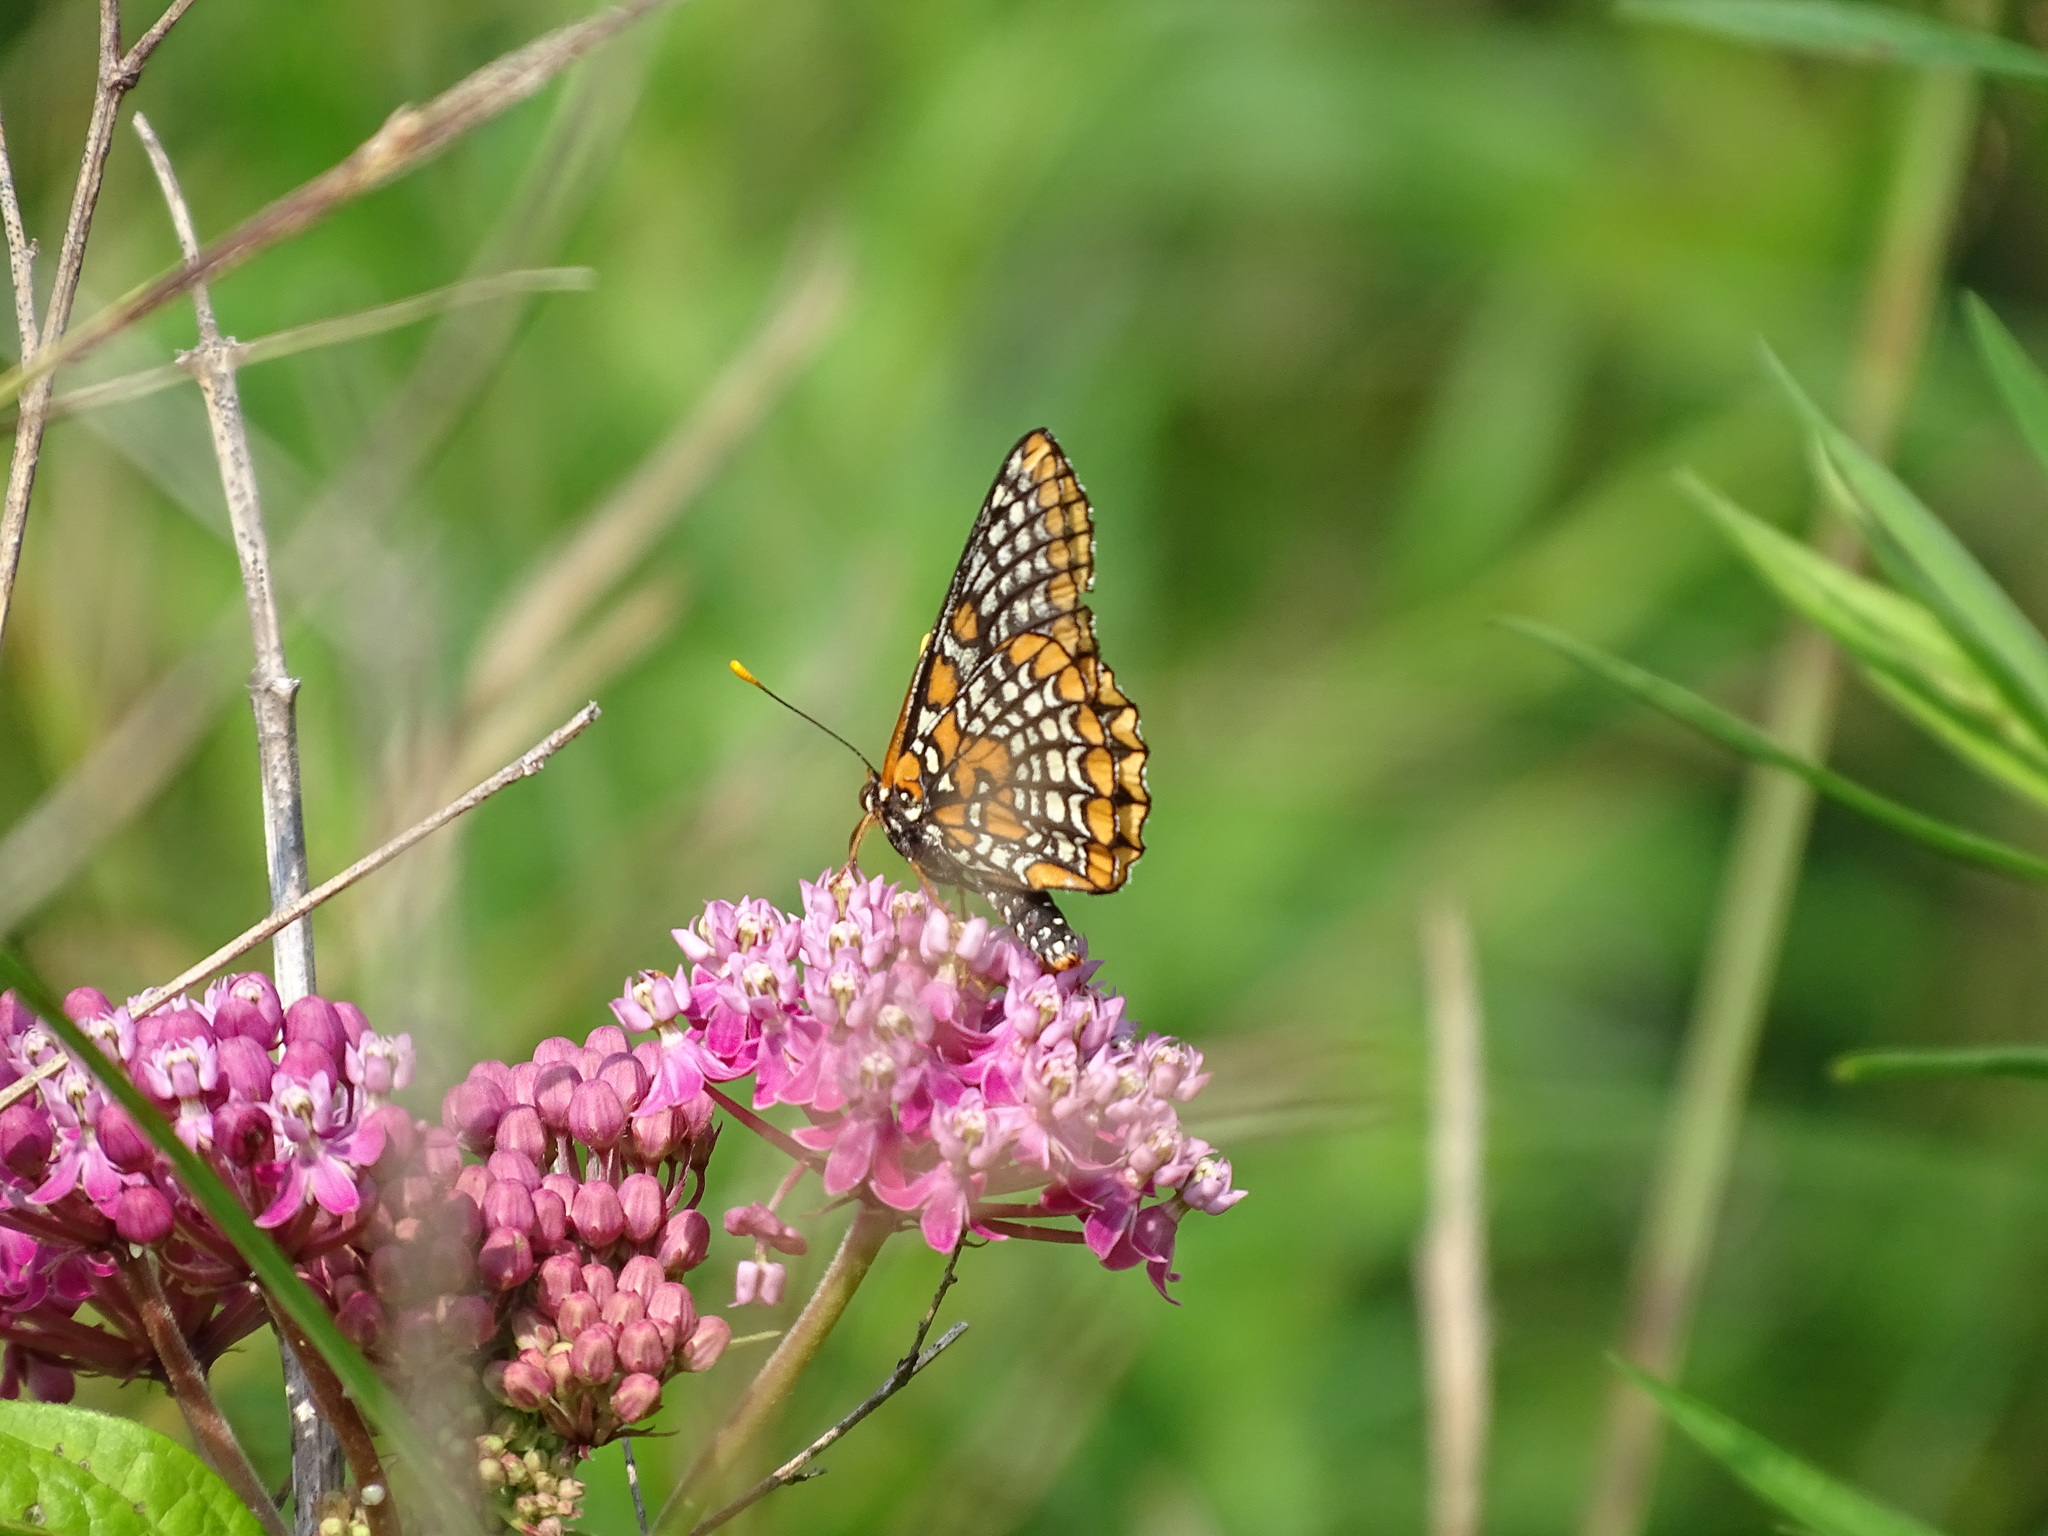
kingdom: Animalia
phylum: Arthropoda
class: Insecta
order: Lepidoptera
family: Nymphalidae
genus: Euphydryas
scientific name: Euphydryas phaeton
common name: Baltimore checkerspot
